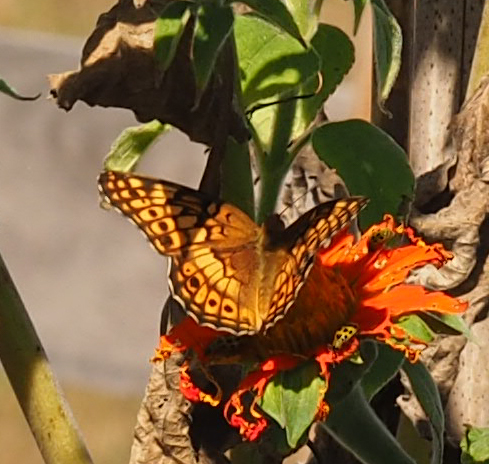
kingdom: Animalia
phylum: Arthropoda
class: Insecta
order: Lepidoptera
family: Nymphalidae
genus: Euptoieta
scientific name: Euptoieta claudia
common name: Variegated fritillary
